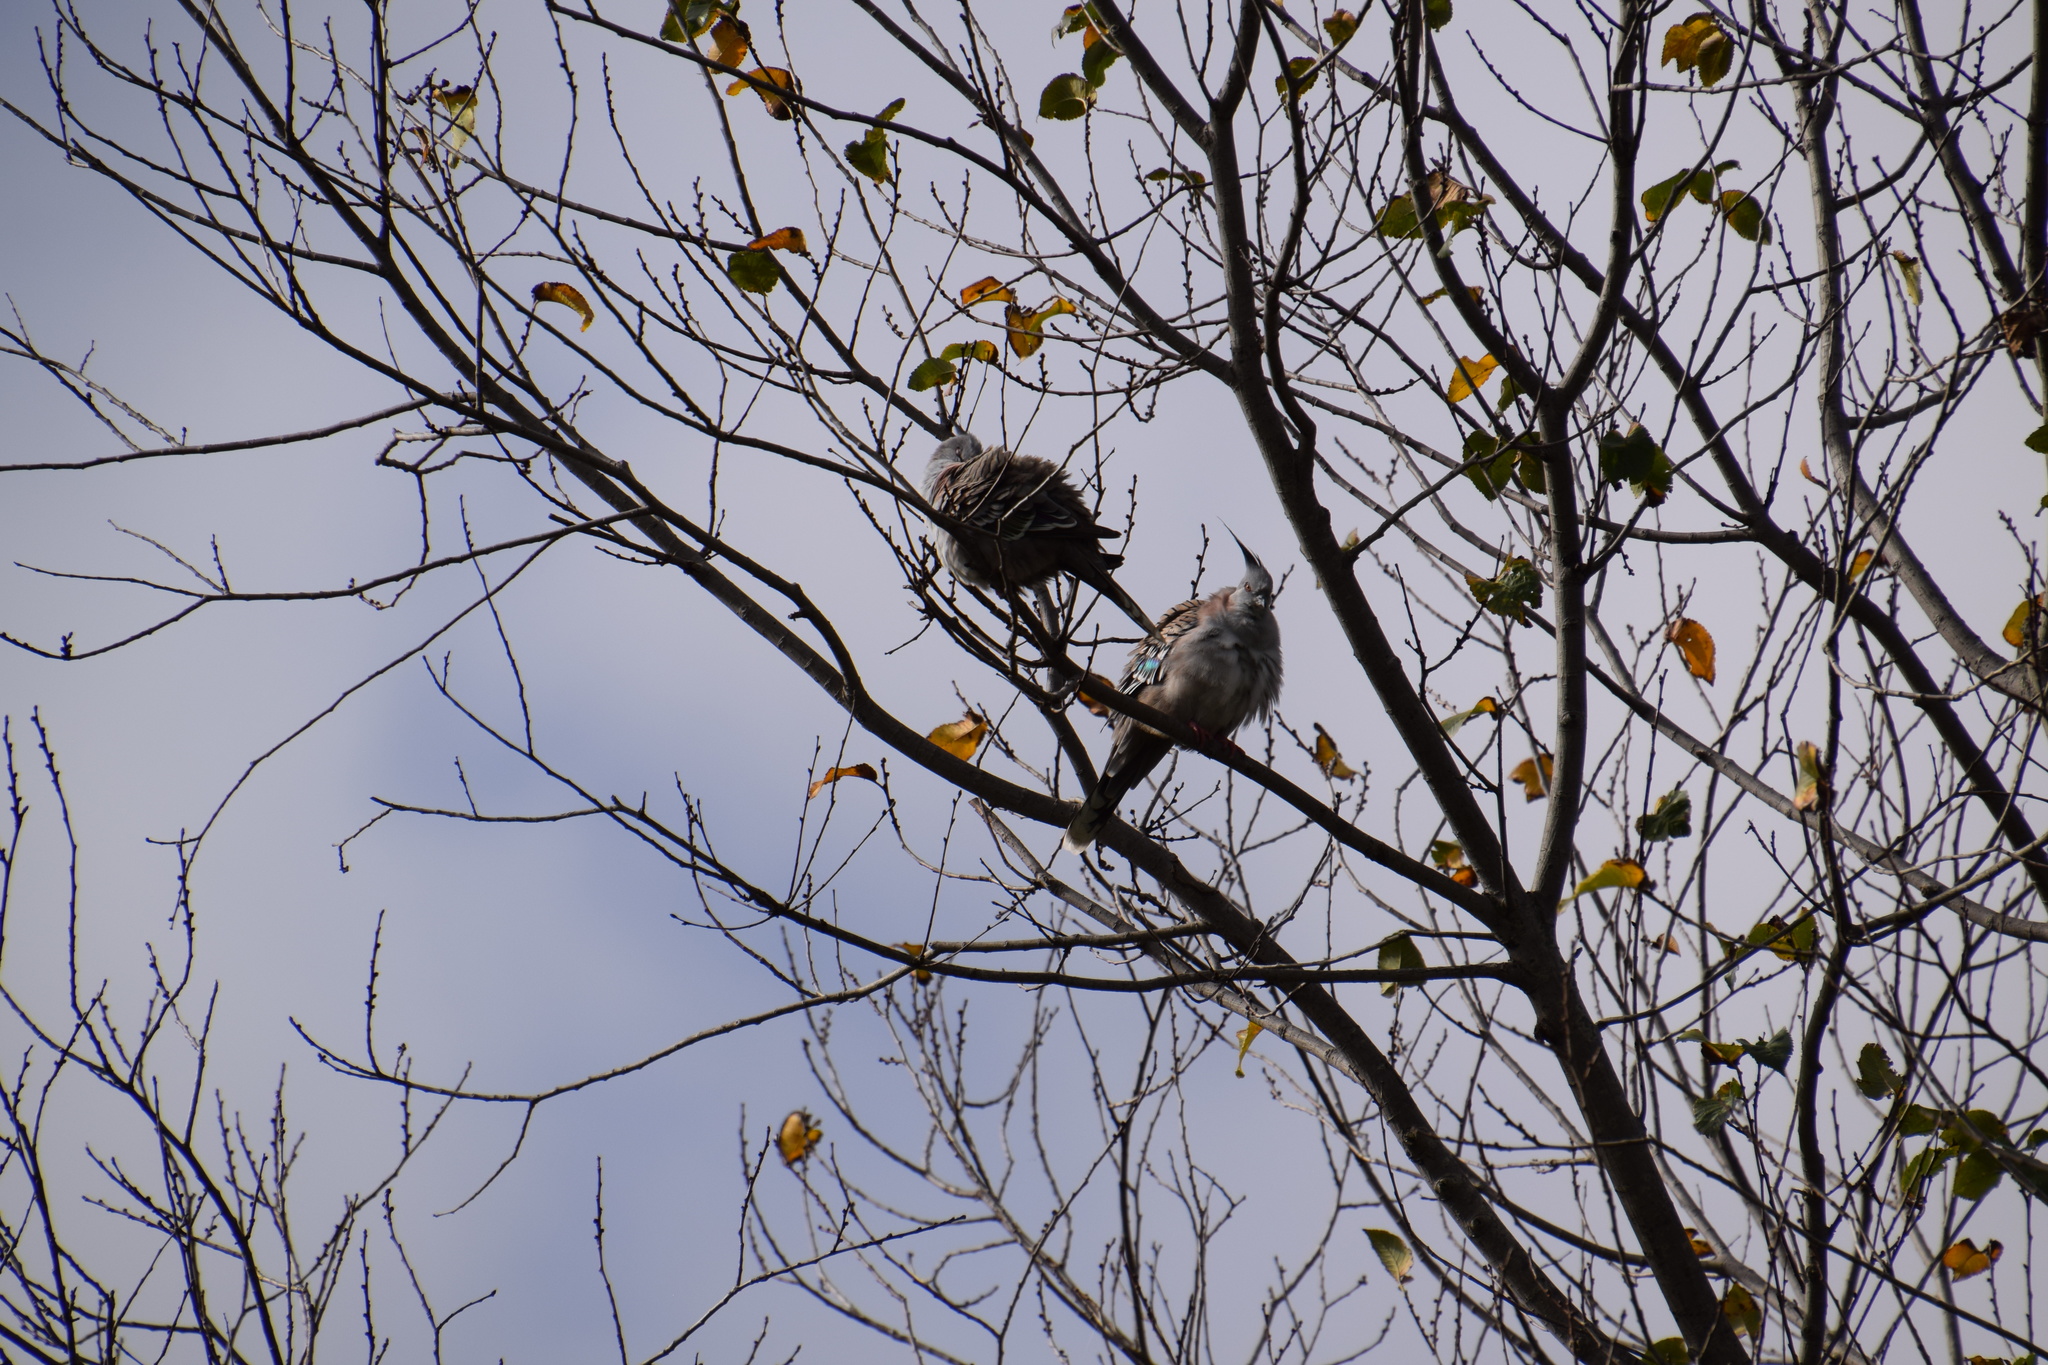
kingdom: Animalia
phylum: Chordata
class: Aves
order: Columbiformes
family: Columbidae
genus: Ocyphaps
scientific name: Ocyphaps lophotes
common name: Crested pigeon
